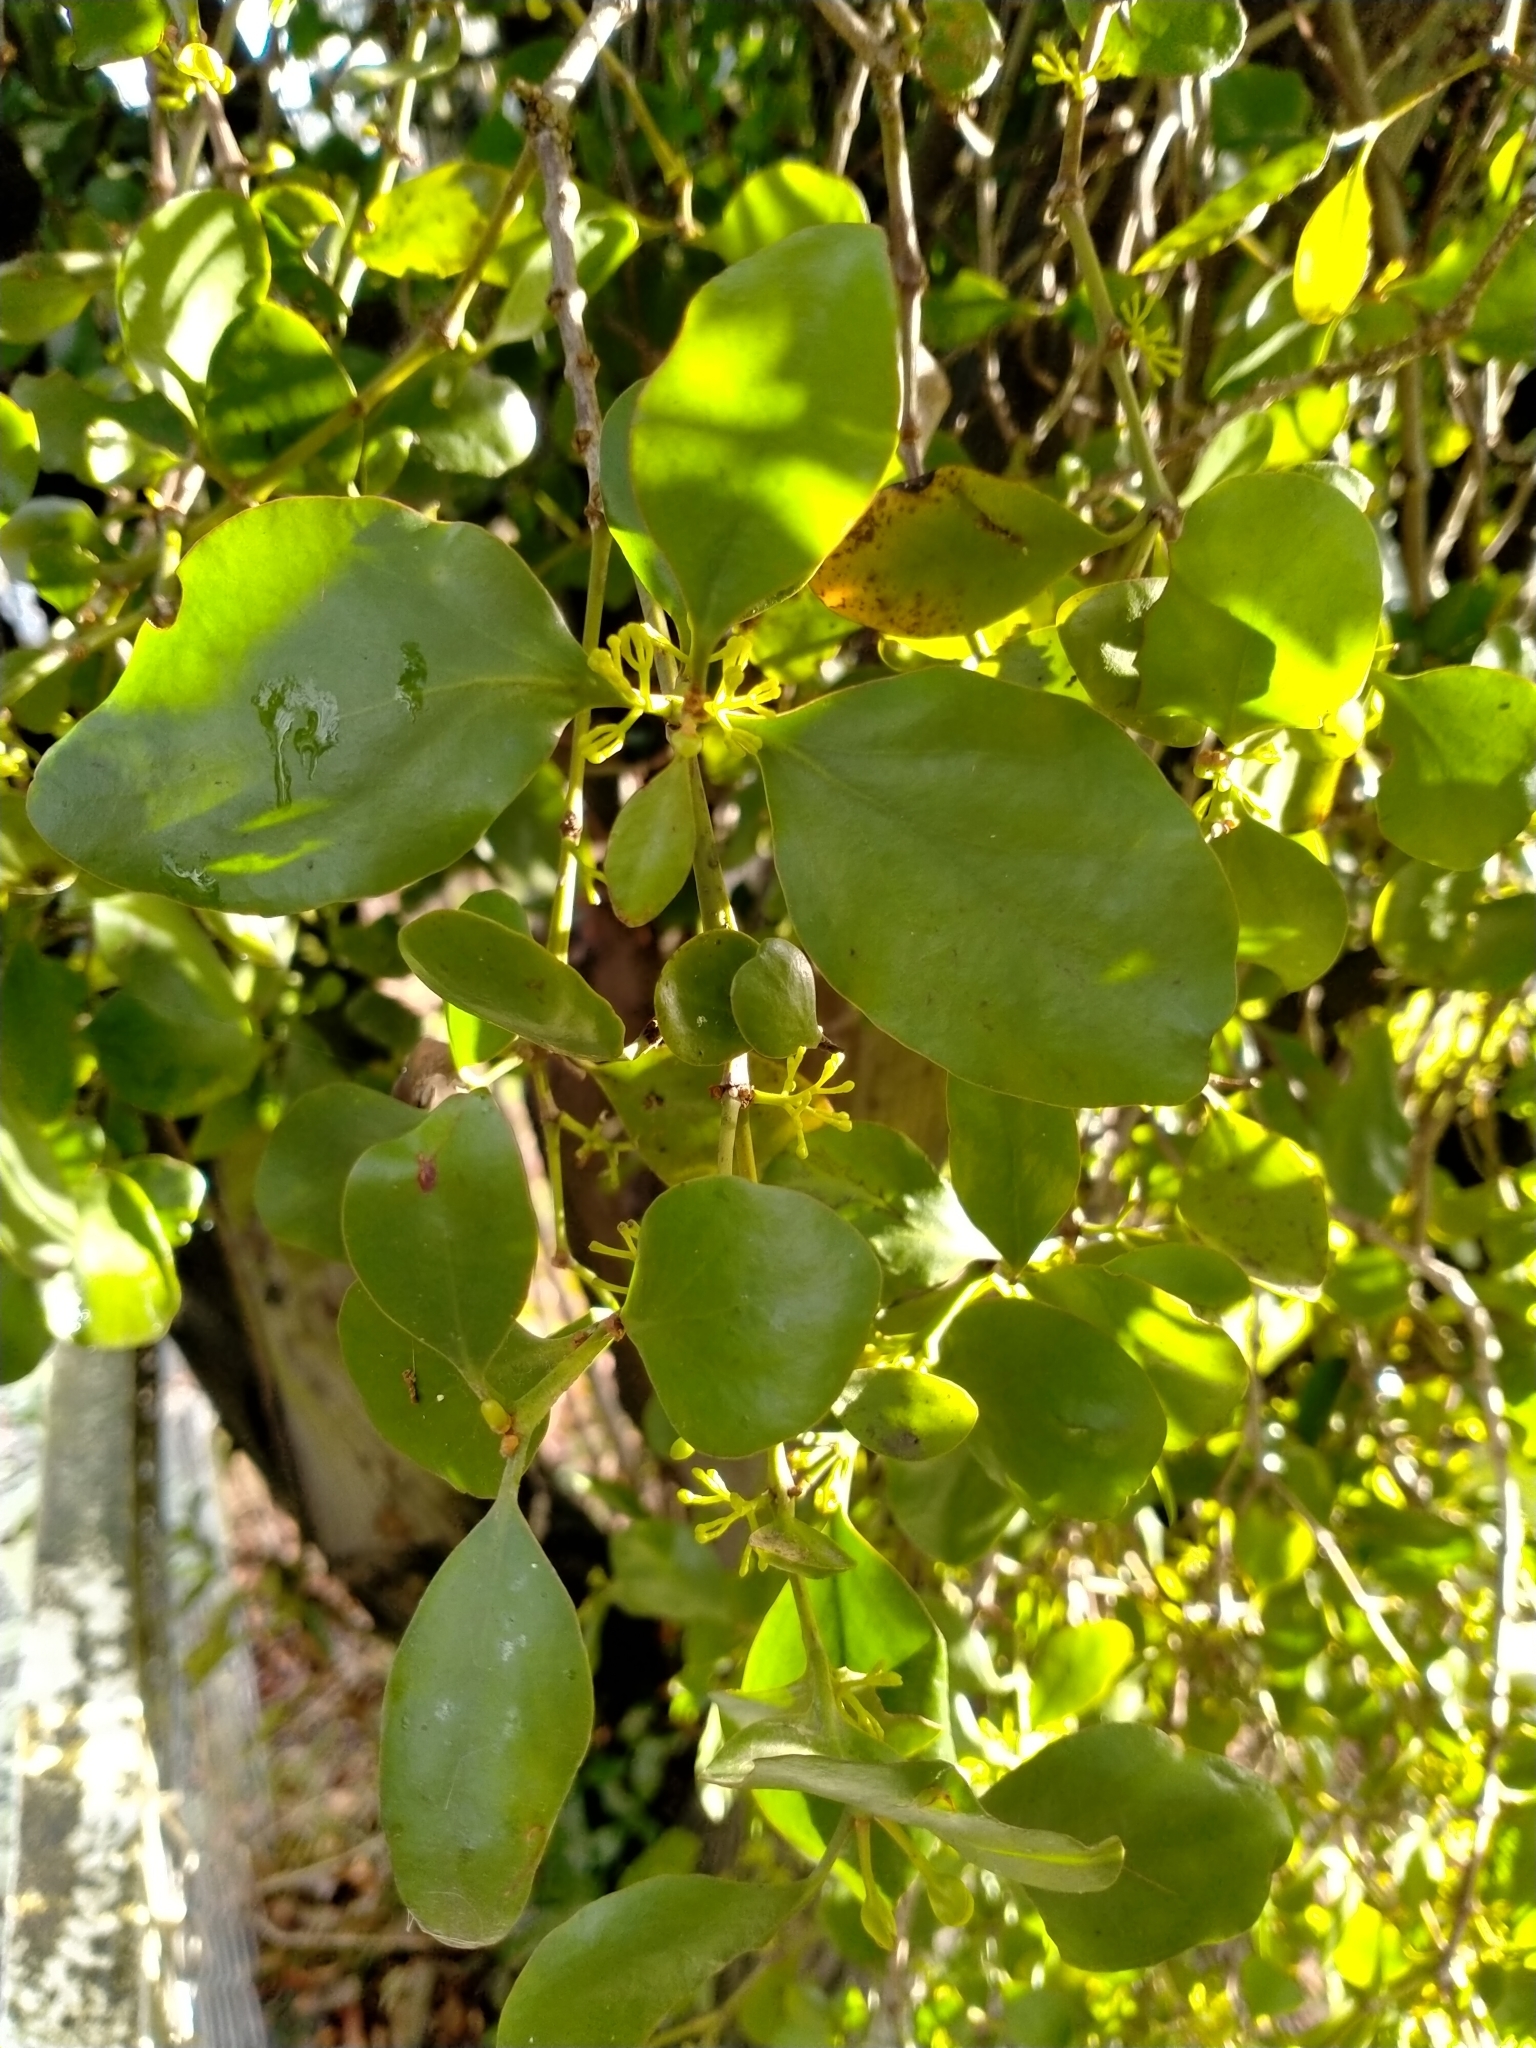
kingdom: Plantae
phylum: Tracheophyta
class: Magnoliopsida
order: Santalales
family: Loranthaceae
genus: Ileostylus
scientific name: Ileostylus micranthus
